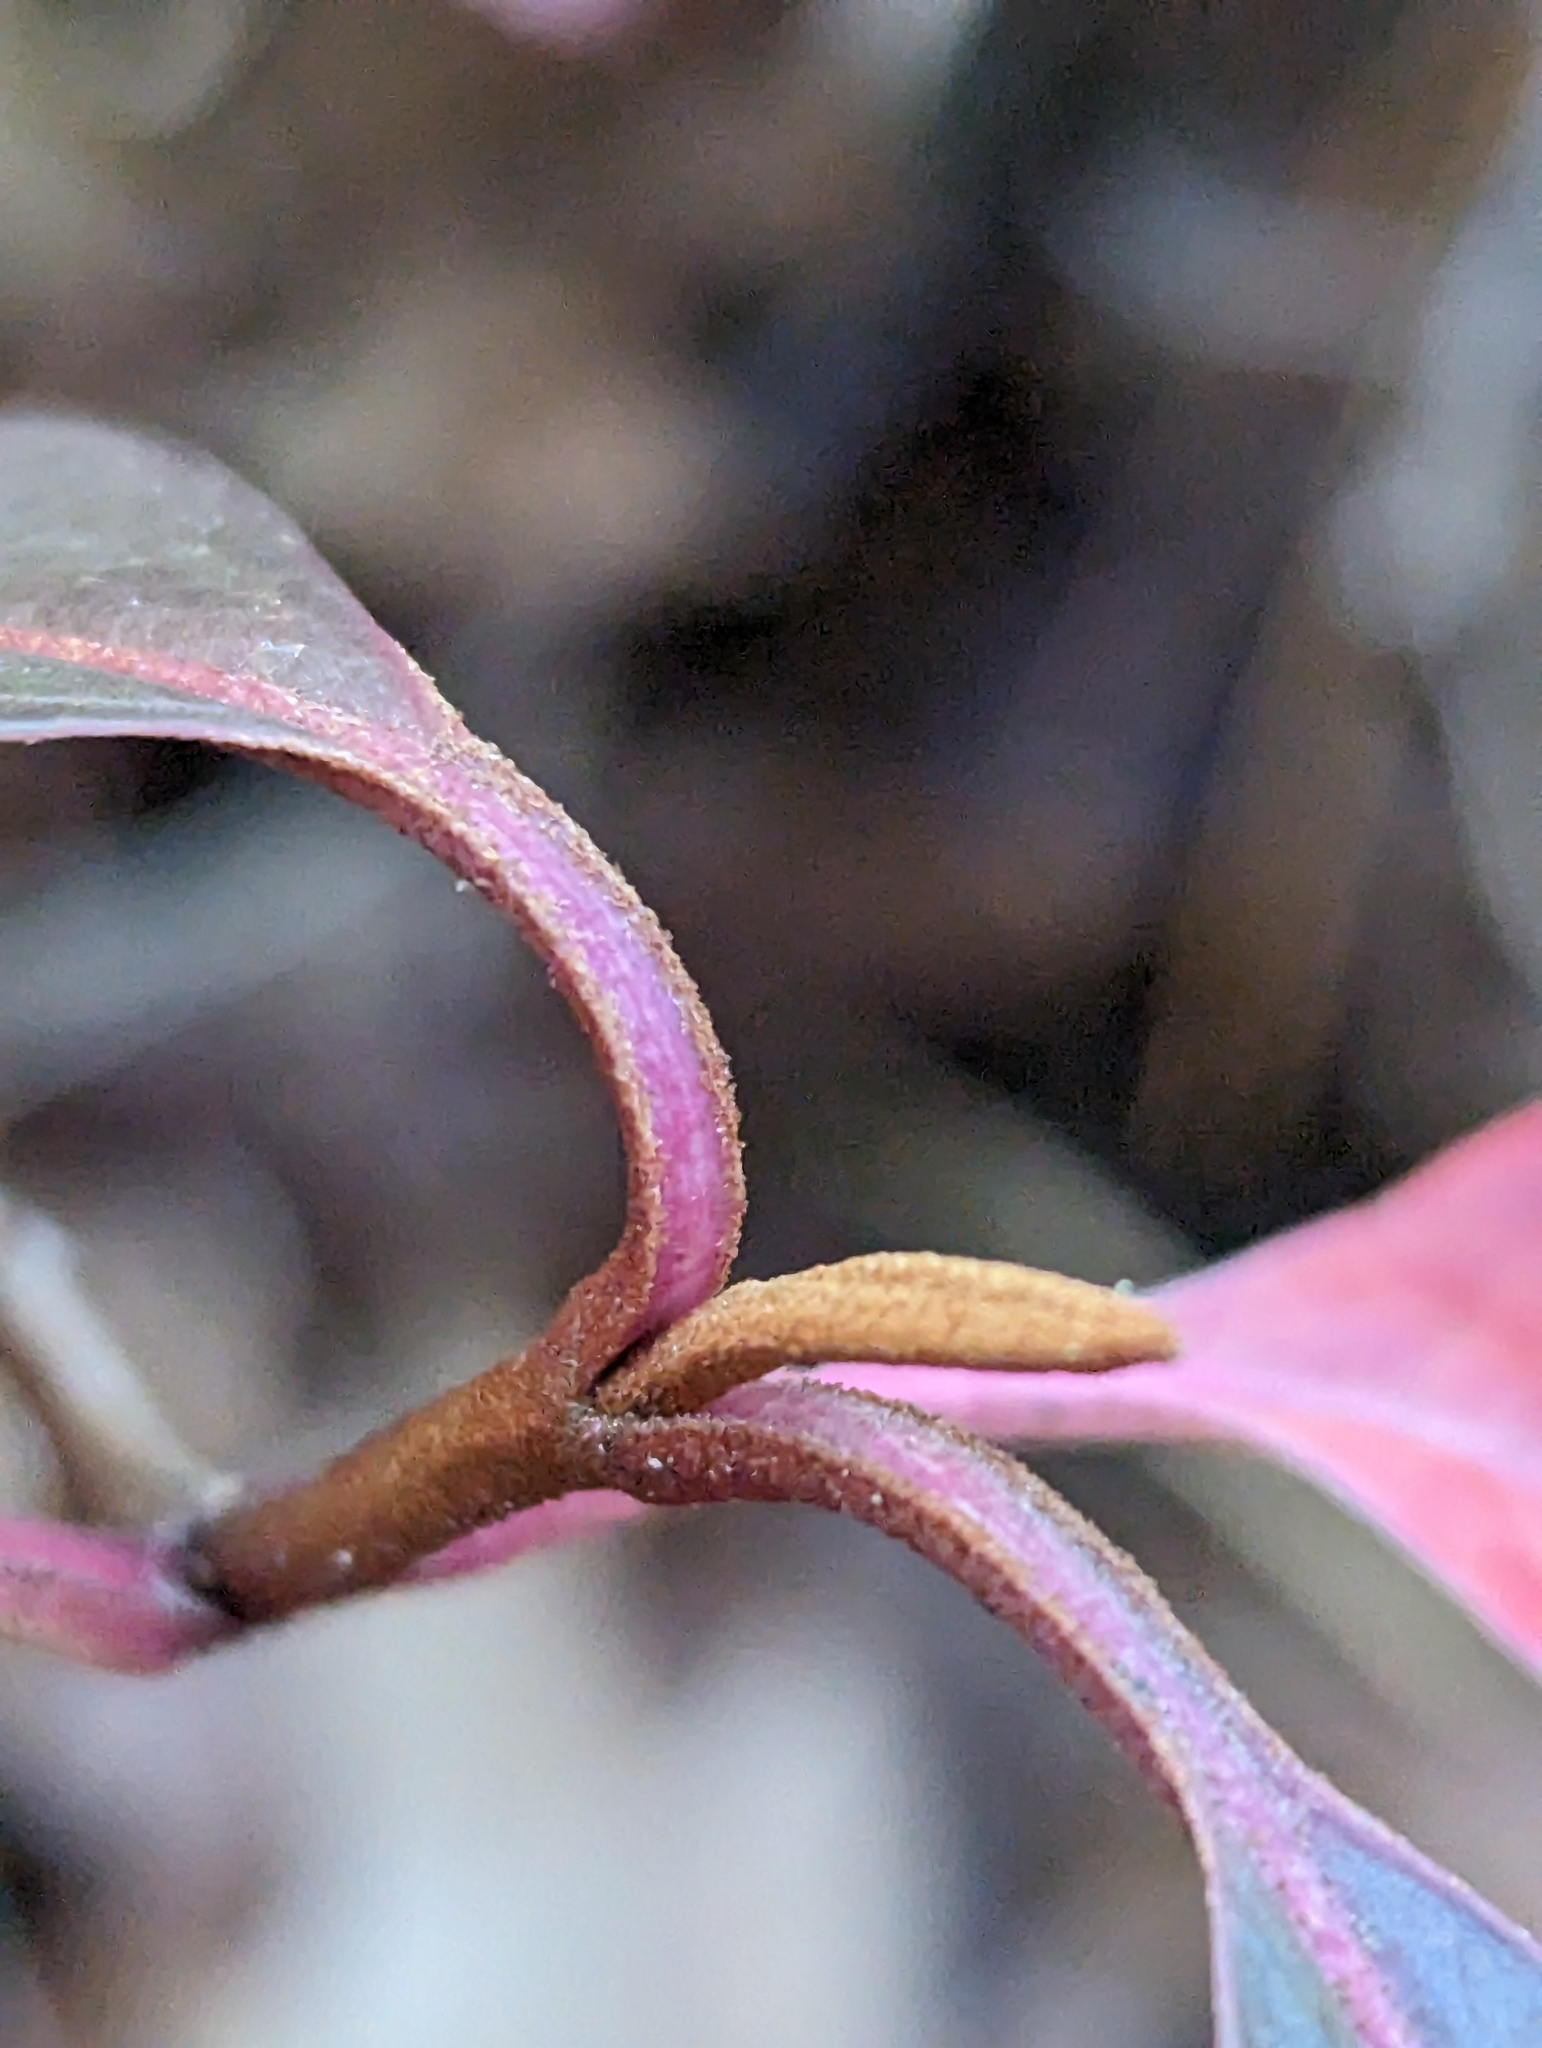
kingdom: Plantae
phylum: Tracheophyta
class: Magnoliopsida
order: Dipsacales
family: Viburnaceae
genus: Viburnum
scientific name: Viburnum cassinoides
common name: Swamp haw
